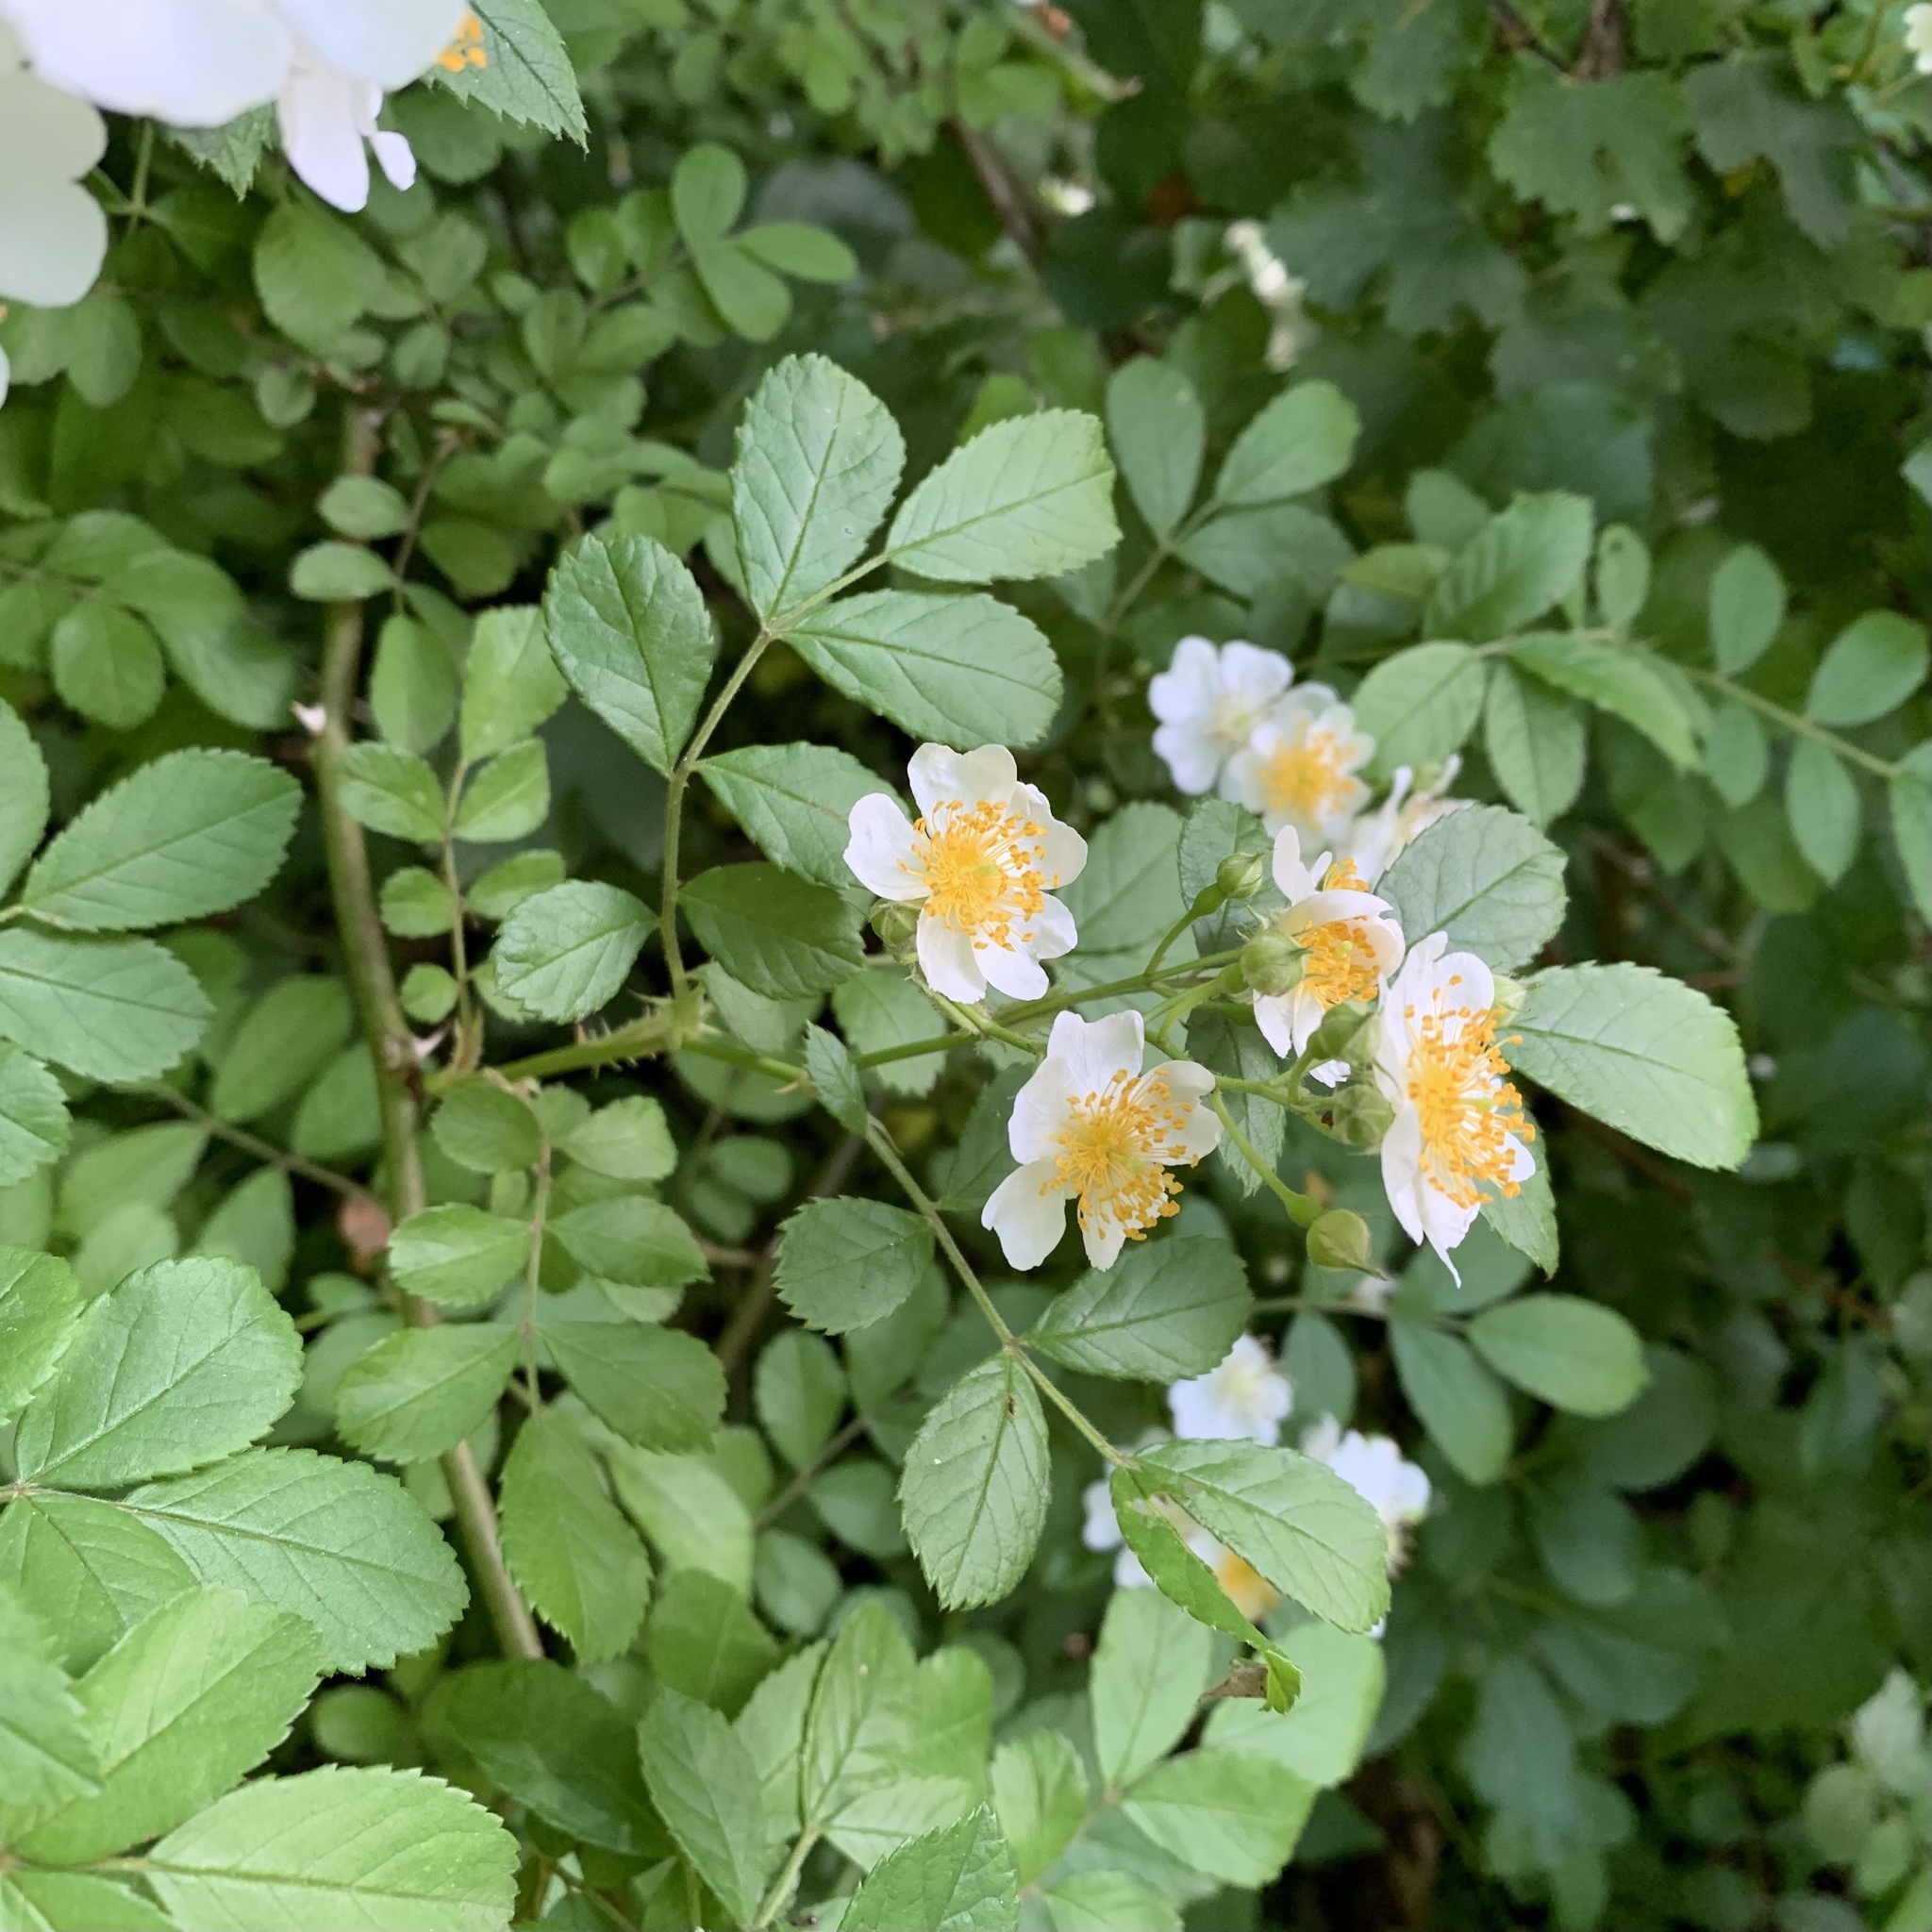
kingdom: Plantae
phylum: Tracheophyta
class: Magnoliopsida
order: Rosales
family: Rosaceae
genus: Rosa
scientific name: Rosa multiflora
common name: Multiflora rose
